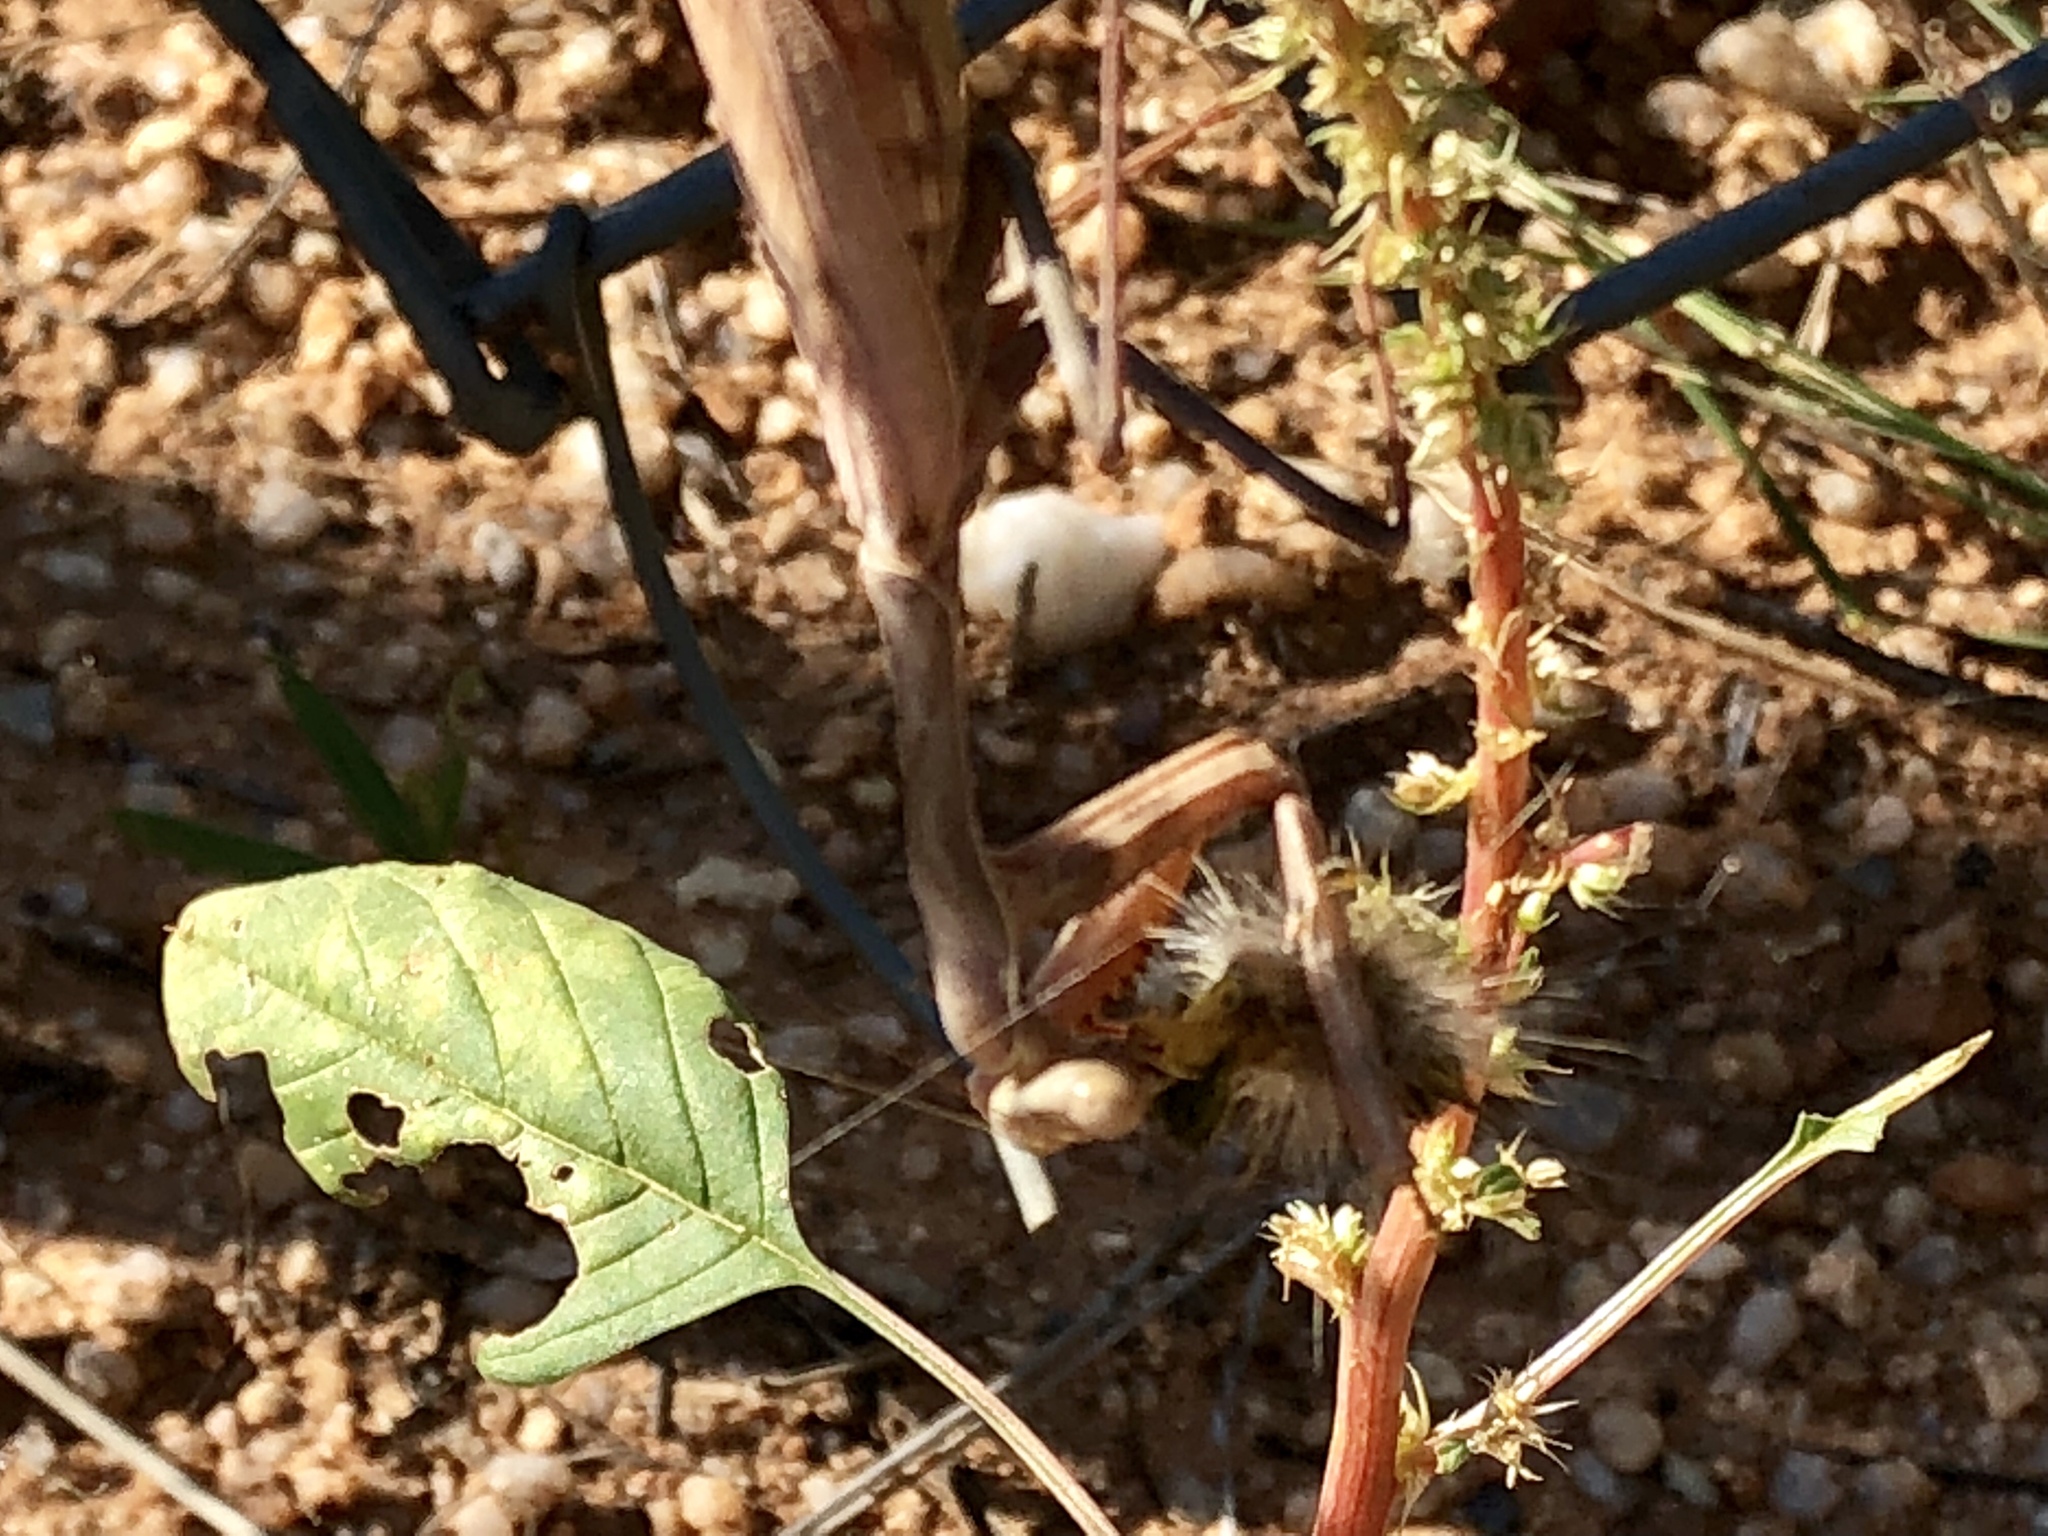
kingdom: Animalia
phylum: Arthropoda
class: Insecta
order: Mantodea
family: Mantidae
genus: Stagmomantis
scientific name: Stagmomantis limbata
